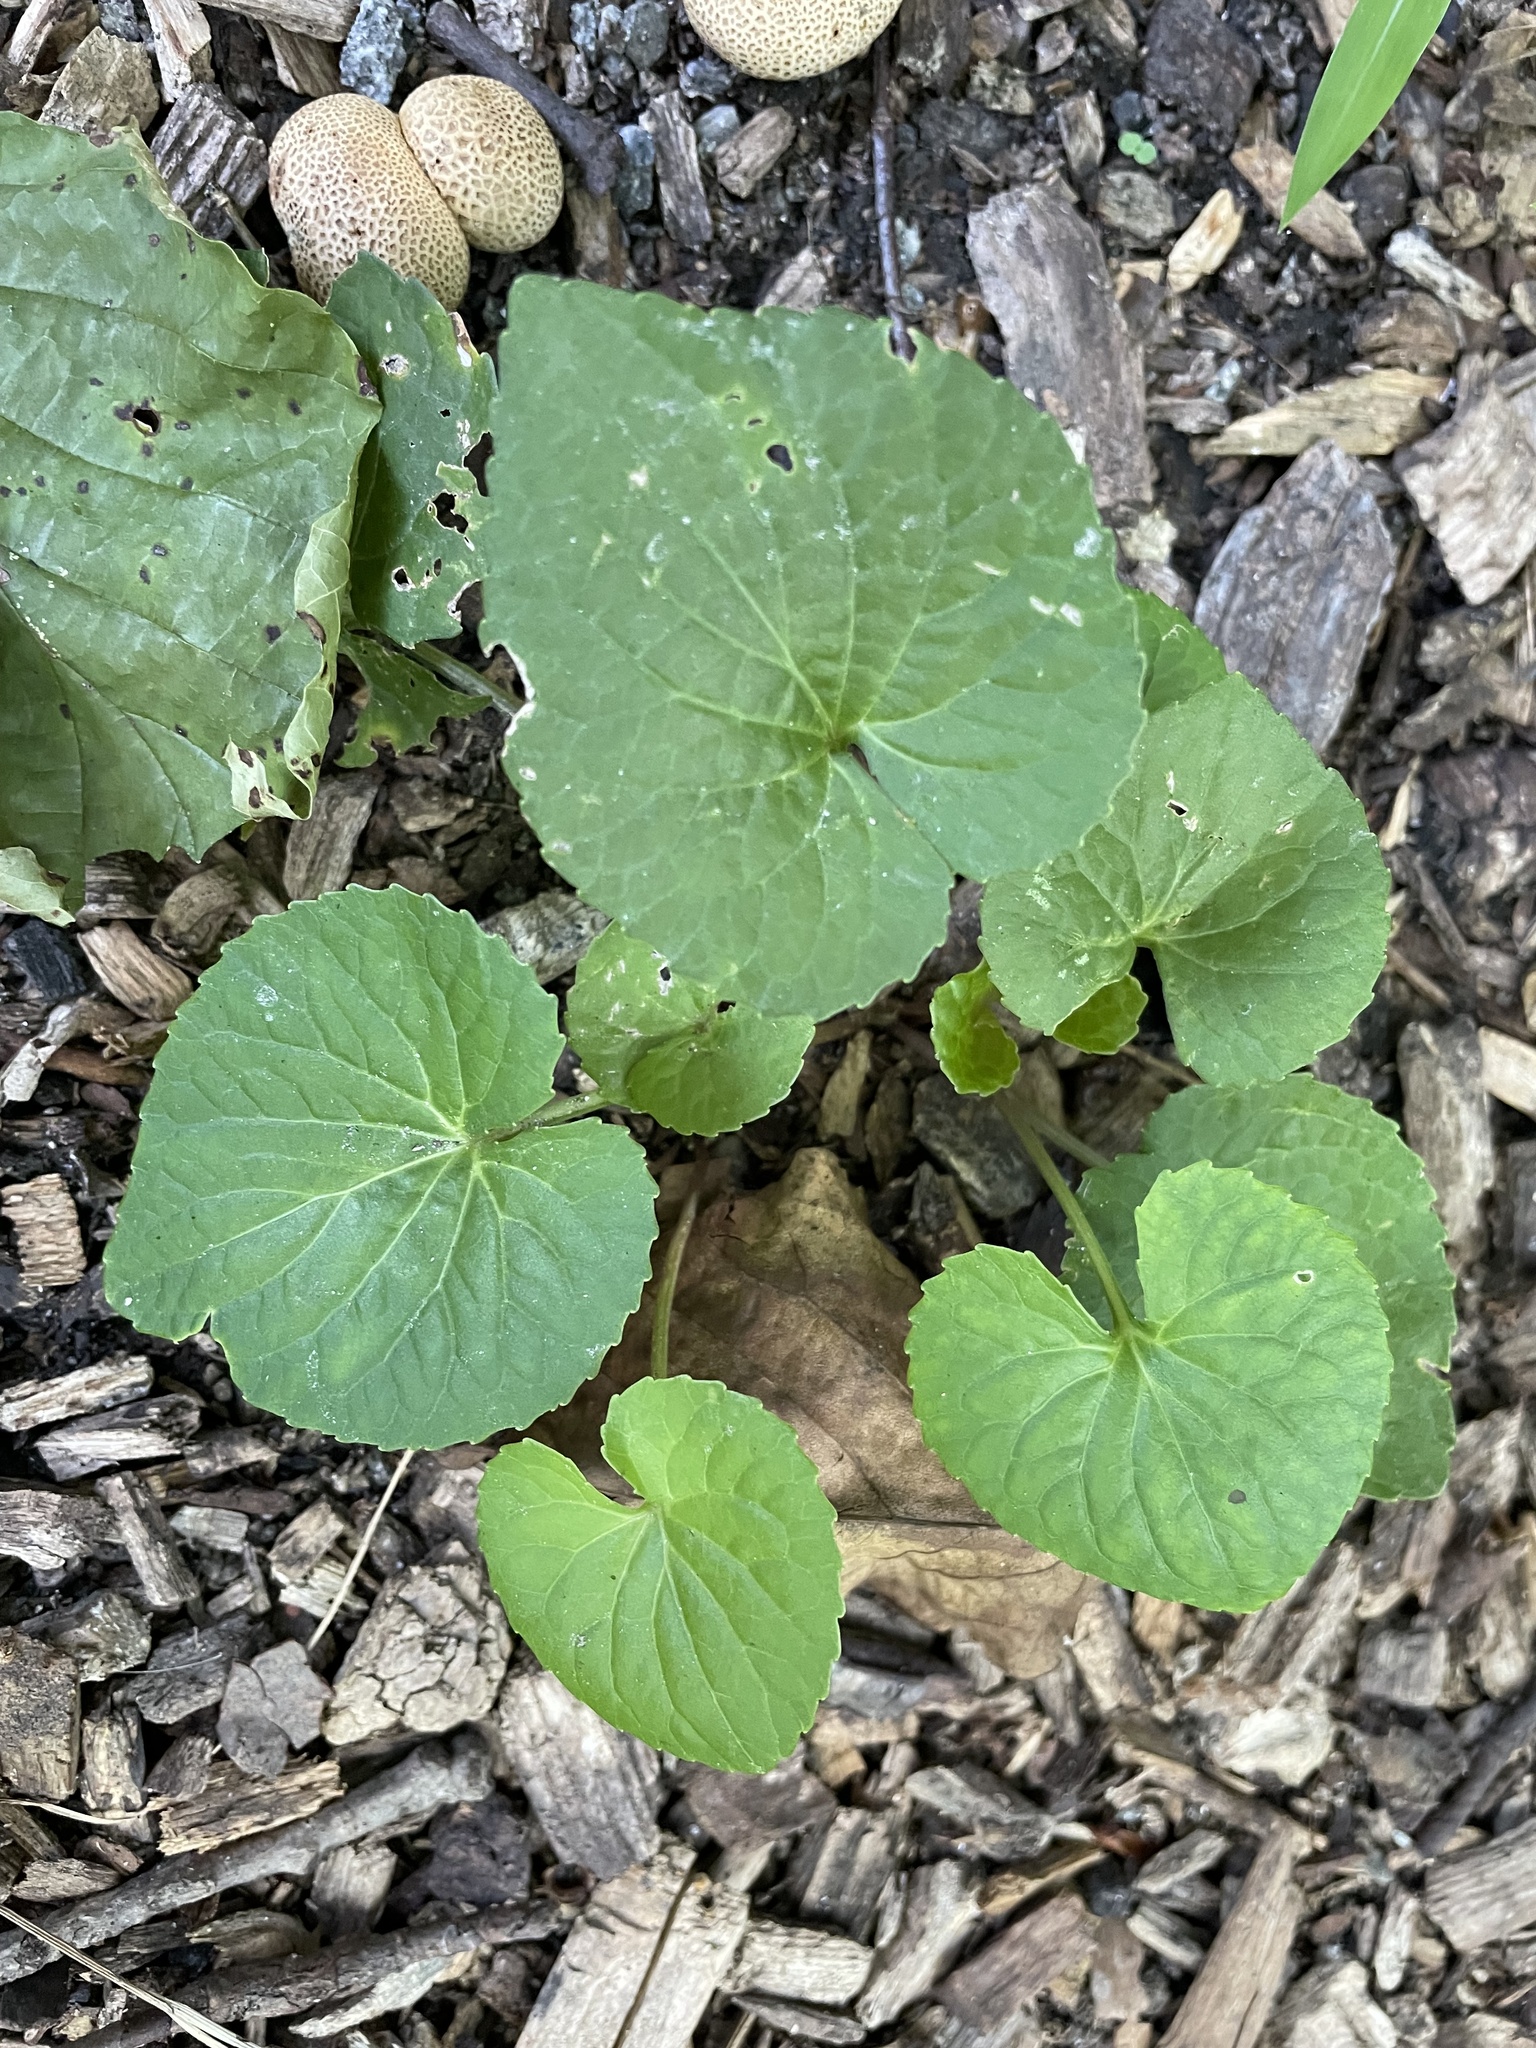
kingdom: Plantae
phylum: Tracheophyta
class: Magnoliopsida
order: Malpighiales
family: Violaceae
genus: Viola
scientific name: Viola sororia
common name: Dooryard violet
